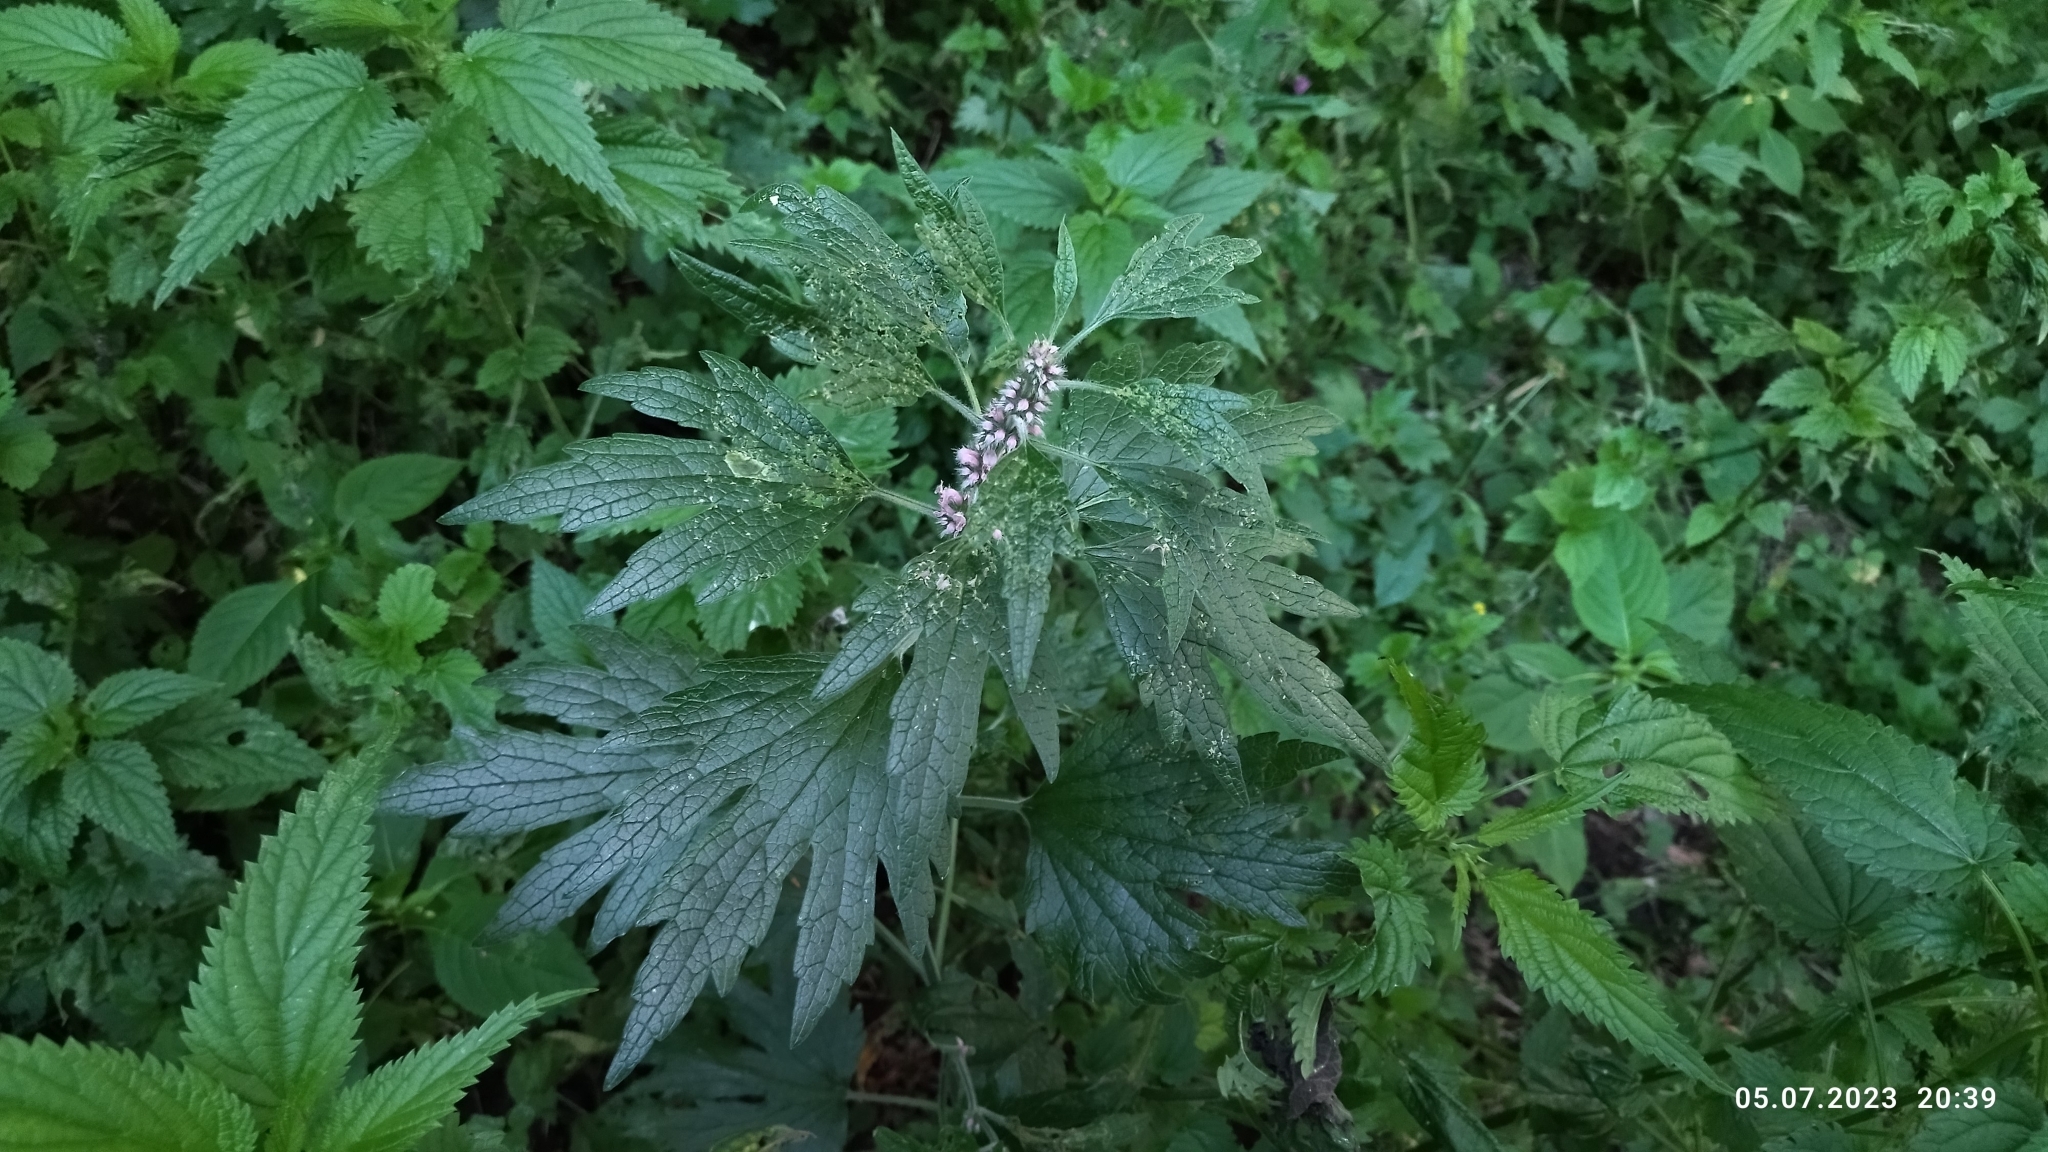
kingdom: Plantae
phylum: Tracheophyta
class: Magnoliopsida
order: Lamiales
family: Lamiaceae
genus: Leonurus
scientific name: Leonurus quinquelobatus
